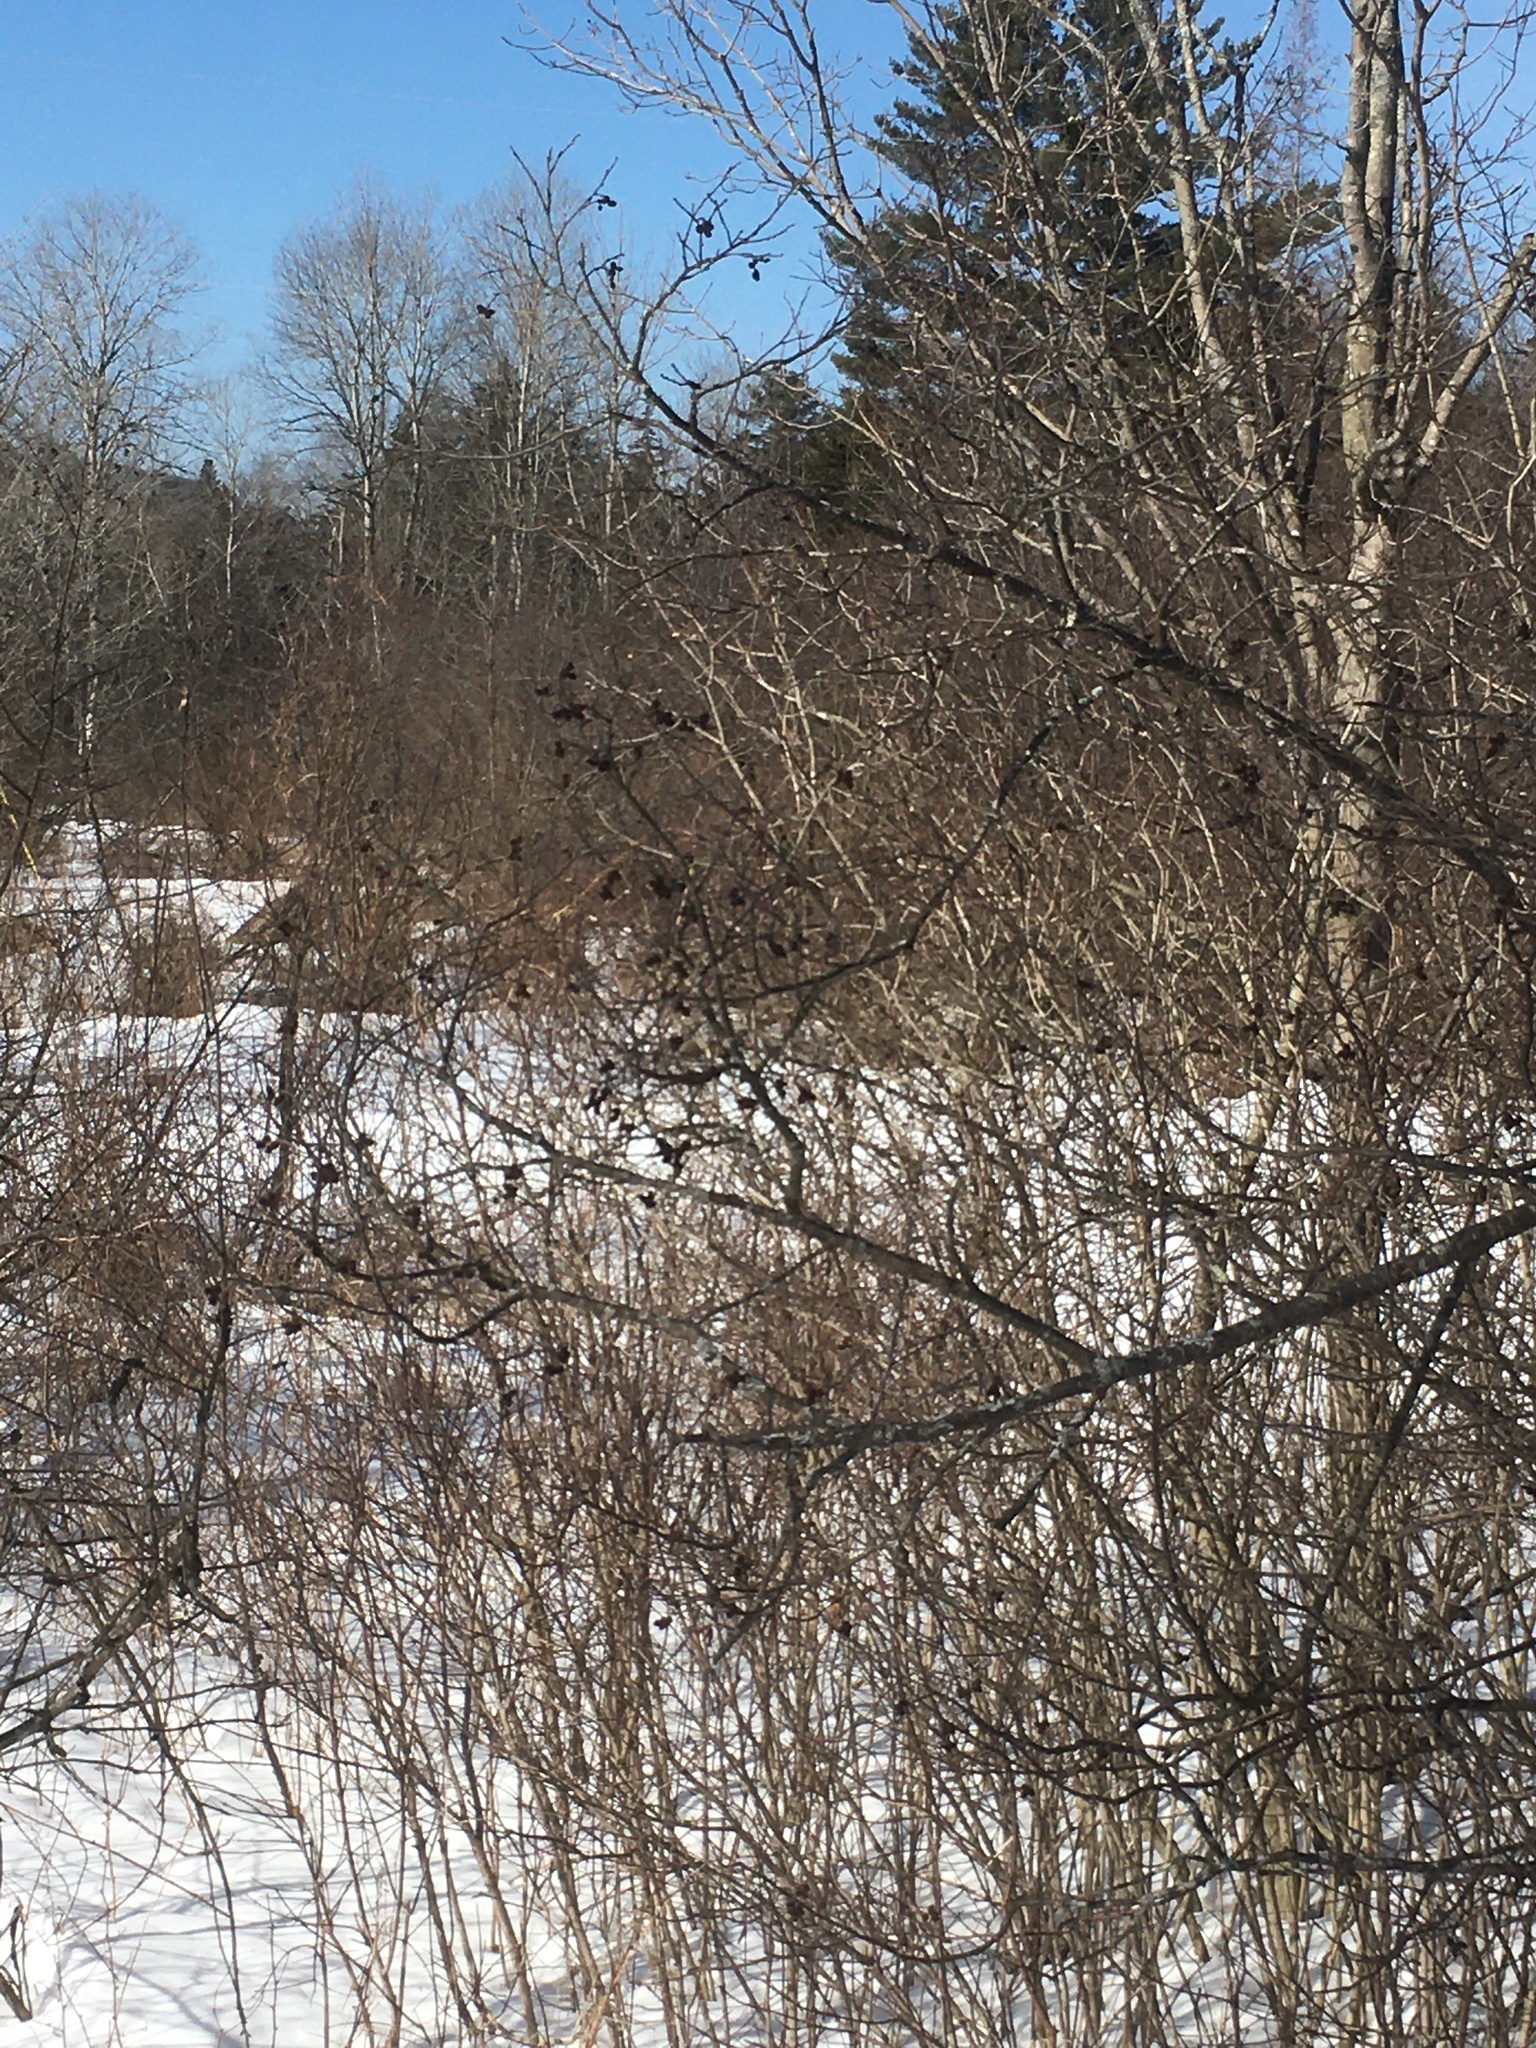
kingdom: Plantae
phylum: Tracheophyta
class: Magnoliopsida
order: Fagales
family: Betulaceae
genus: Alnus
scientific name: Alnus incana
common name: Grey alder
